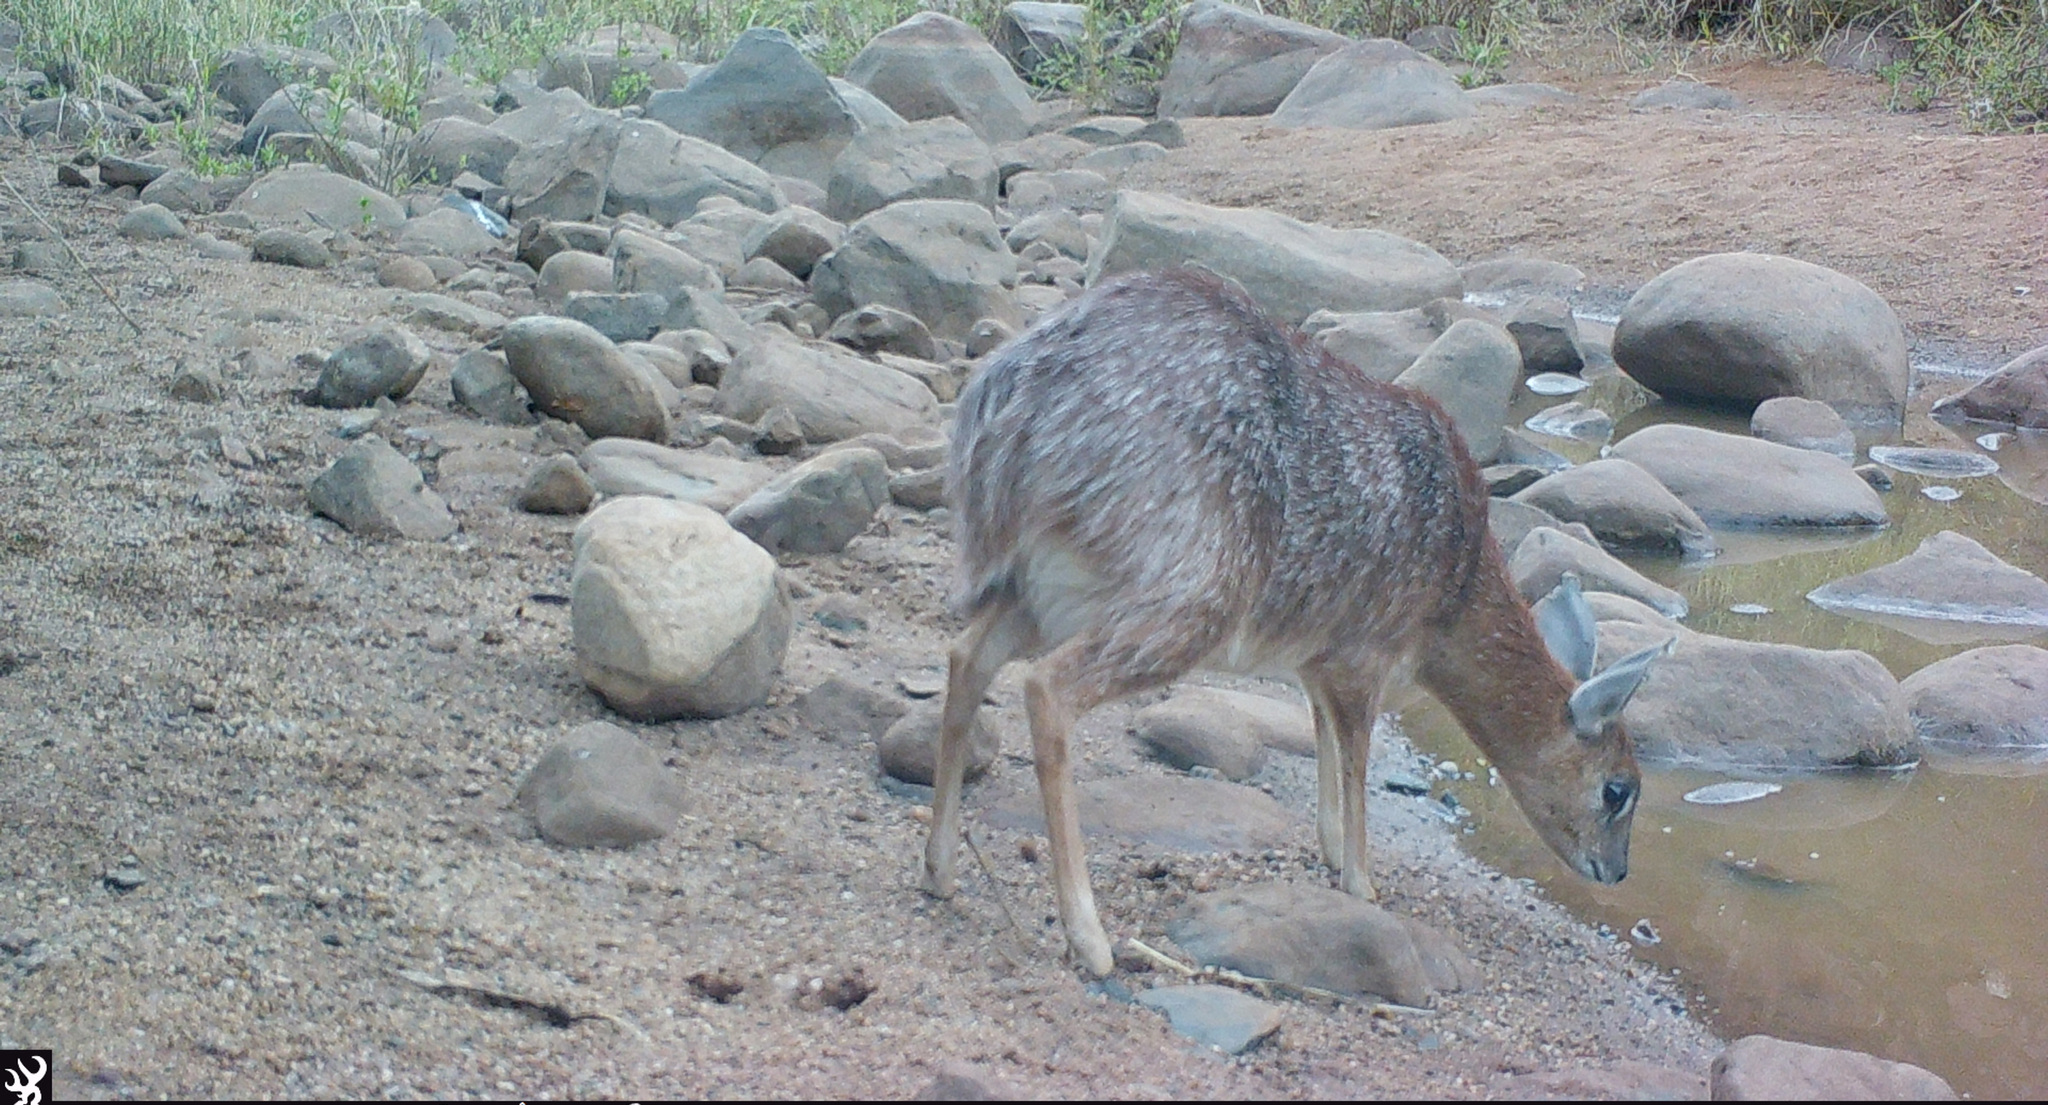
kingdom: Animalia
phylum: Chordata
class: Mammalia
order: Artiodactyla
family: Bovidae
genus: Raphicerus
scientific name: Raphicerus sharpei
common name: Sharpe's grysbok
